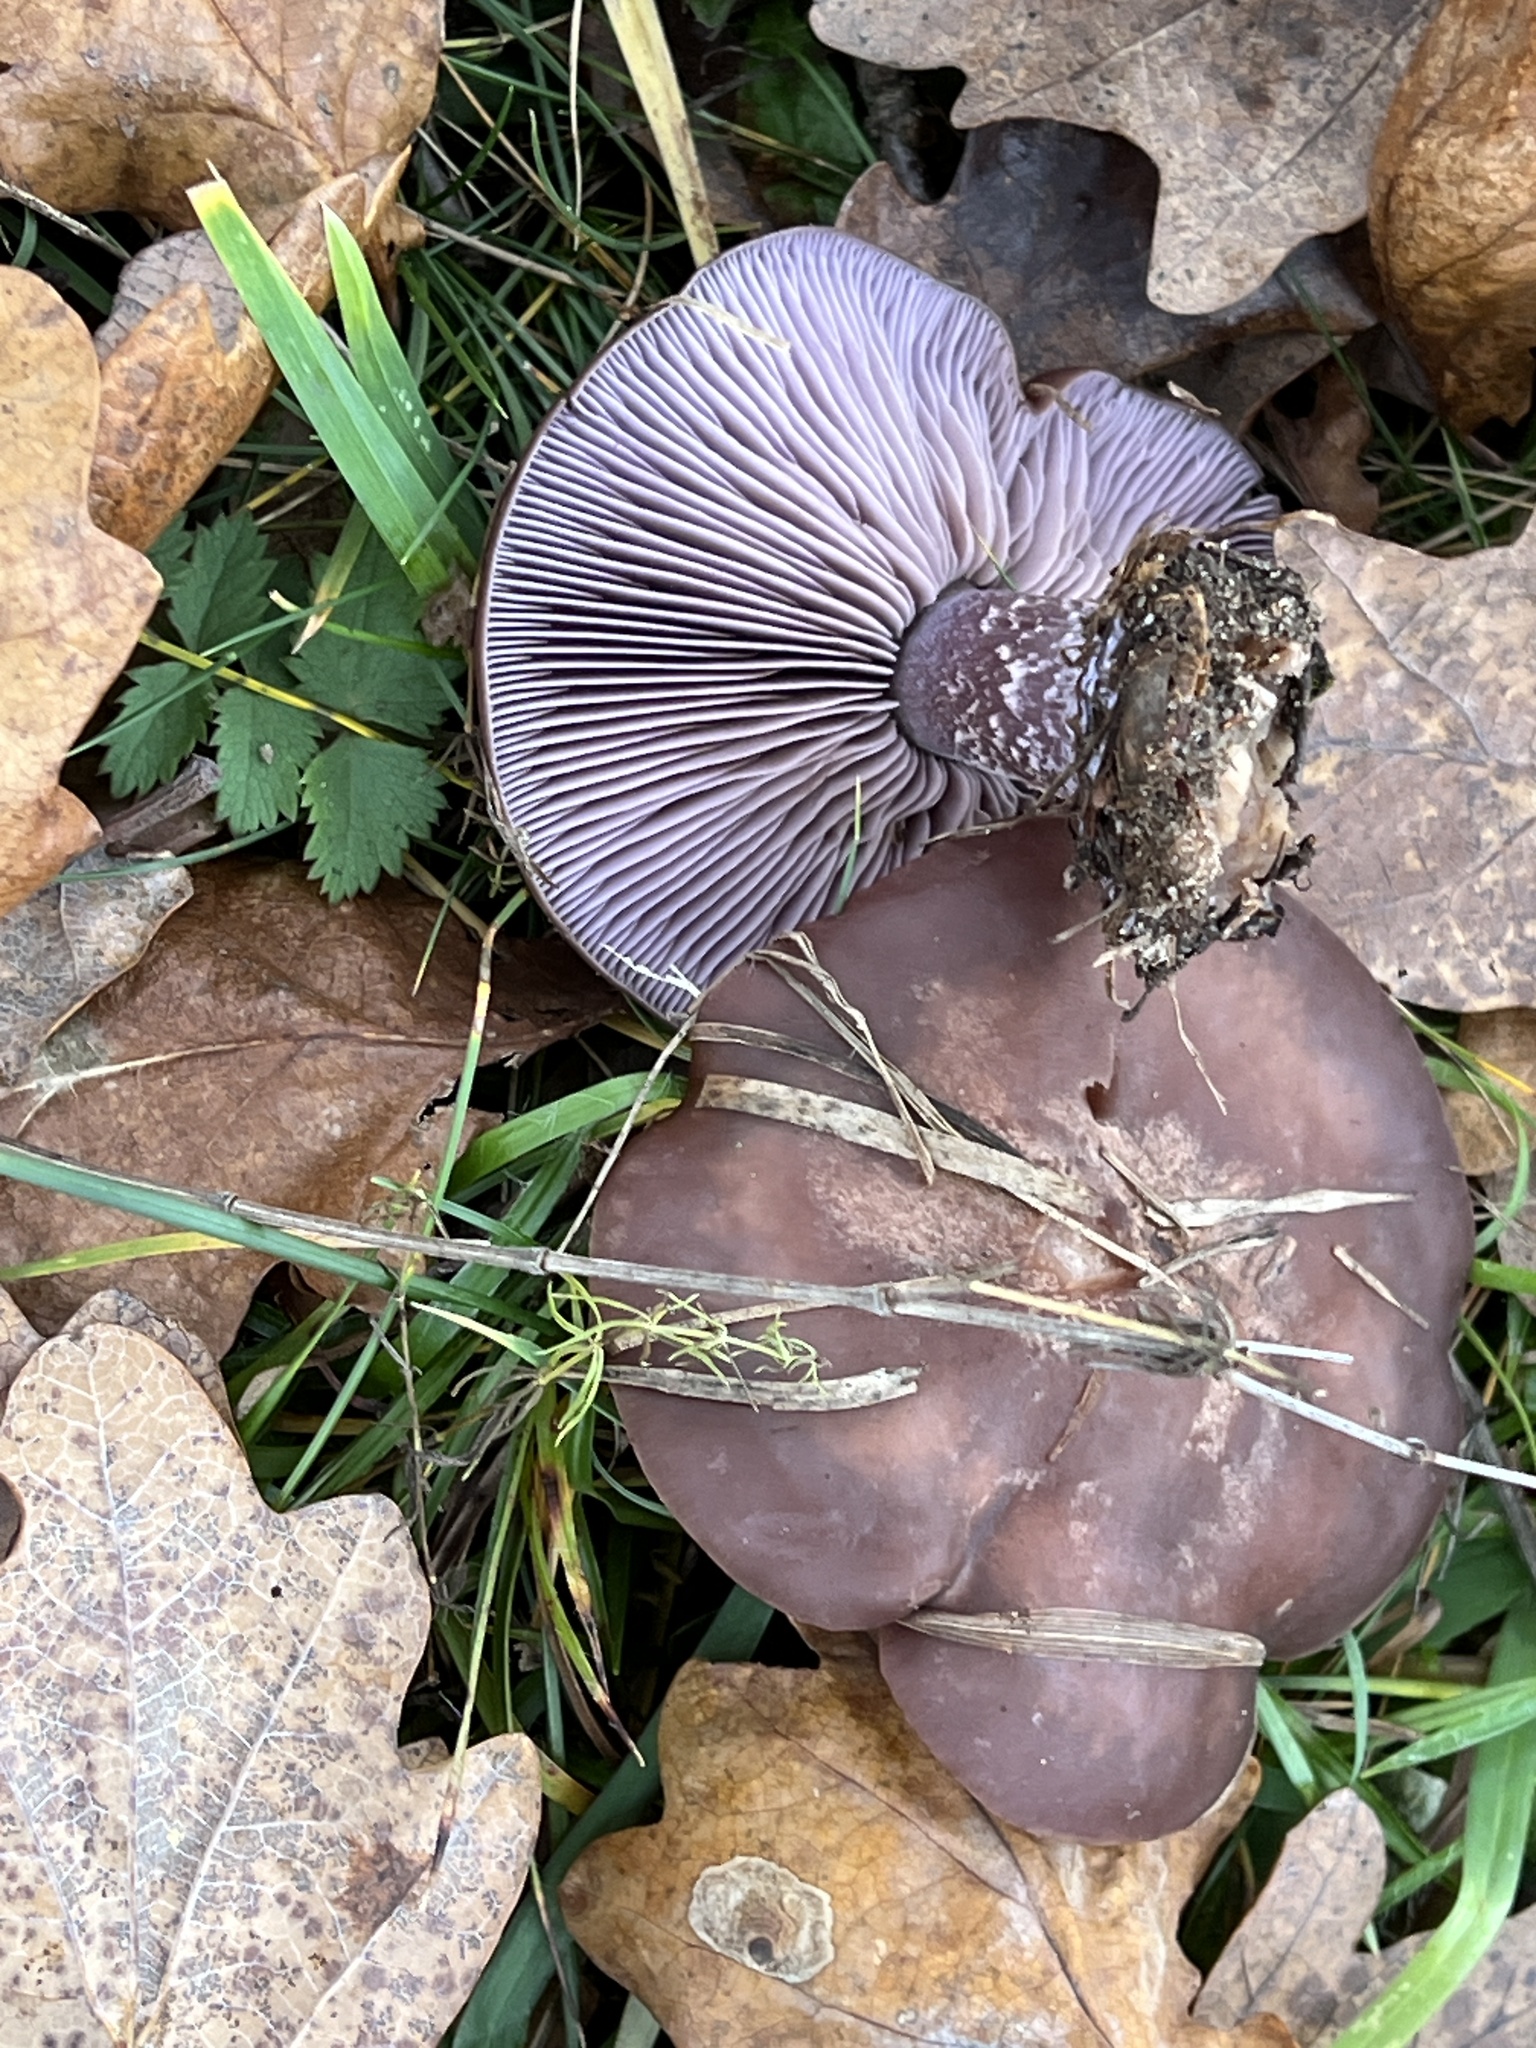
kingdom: Fungi
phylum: Basidiomycota
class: Agaricomycetes
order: Agaricales
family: Tricholomataceae
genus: Collybia
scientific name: Collybia
